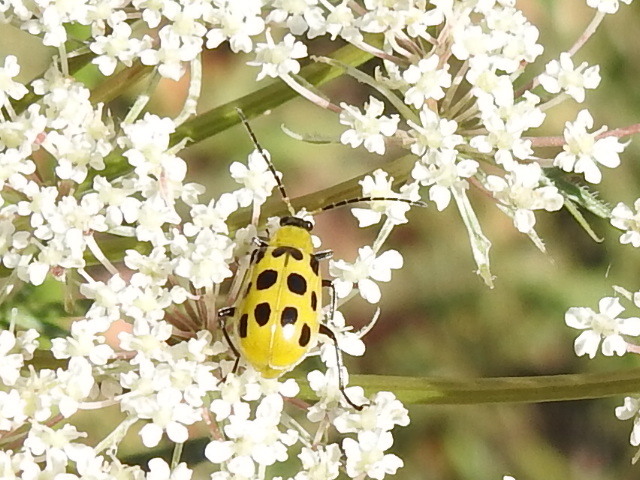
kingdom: Animalia
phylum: Arthropoda
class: Insecta
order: Coleoptera
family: Chrysomelidae
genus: Diabrotica
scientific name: Diabrotica undecimpunctata
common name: Spotted cucumber beetle
